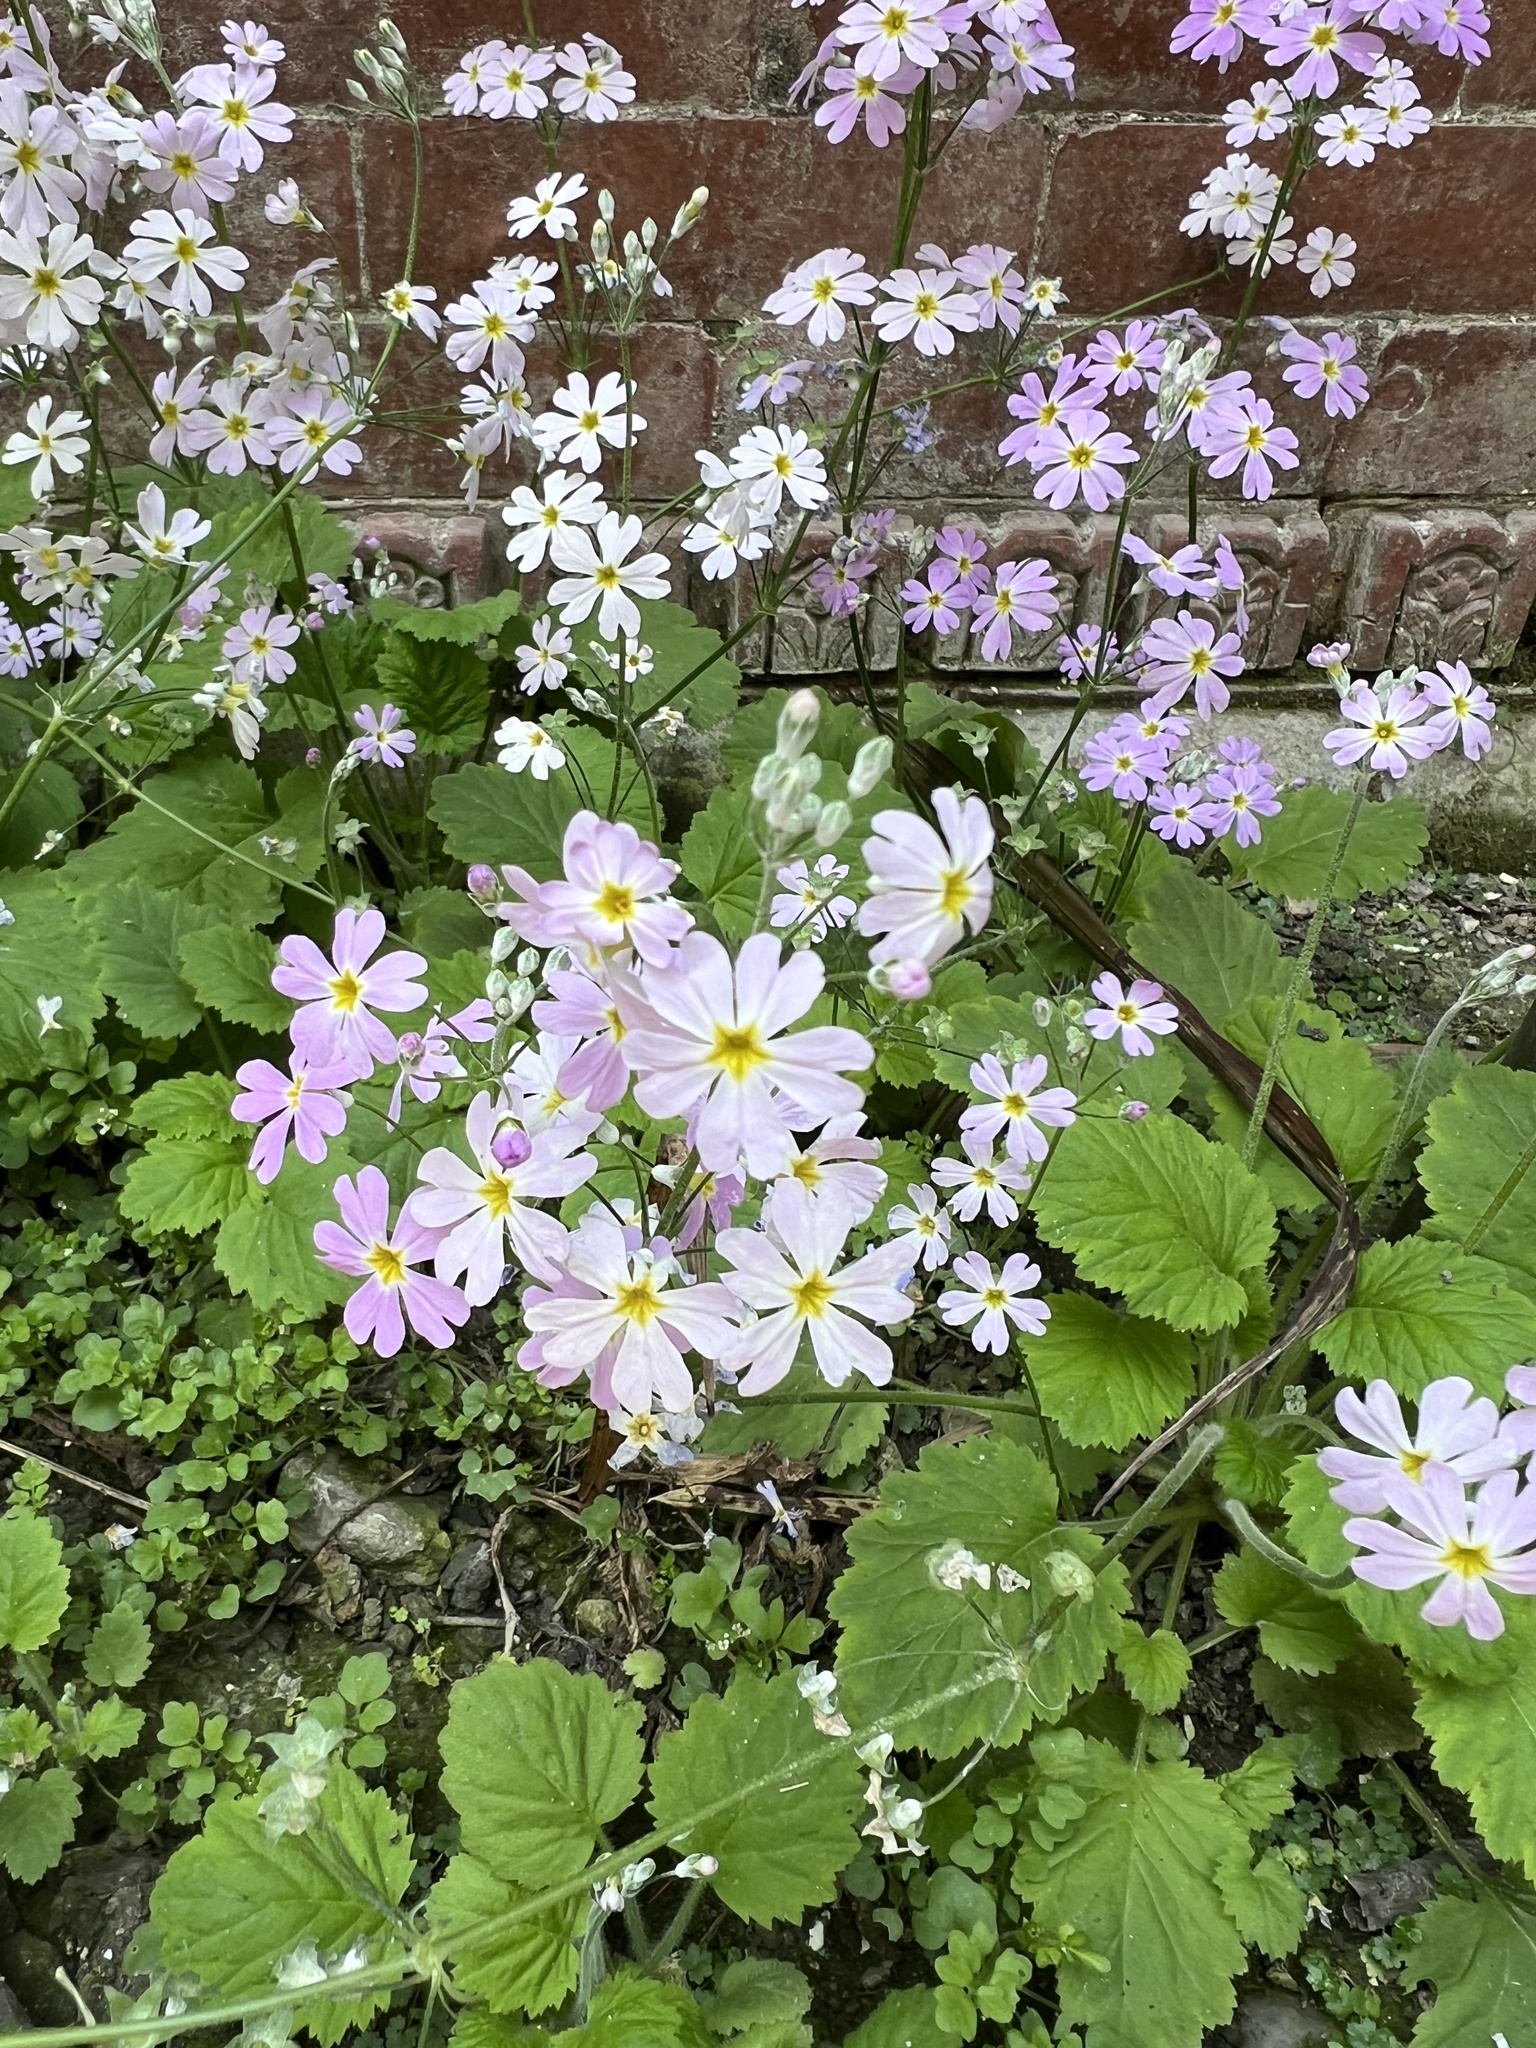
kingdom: Plantae
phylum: Tracheophyta
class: Magnoliopsida
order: Ericales
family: Primulaceae
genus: Primula
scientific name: Primula malacoides
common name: Baby primrose
